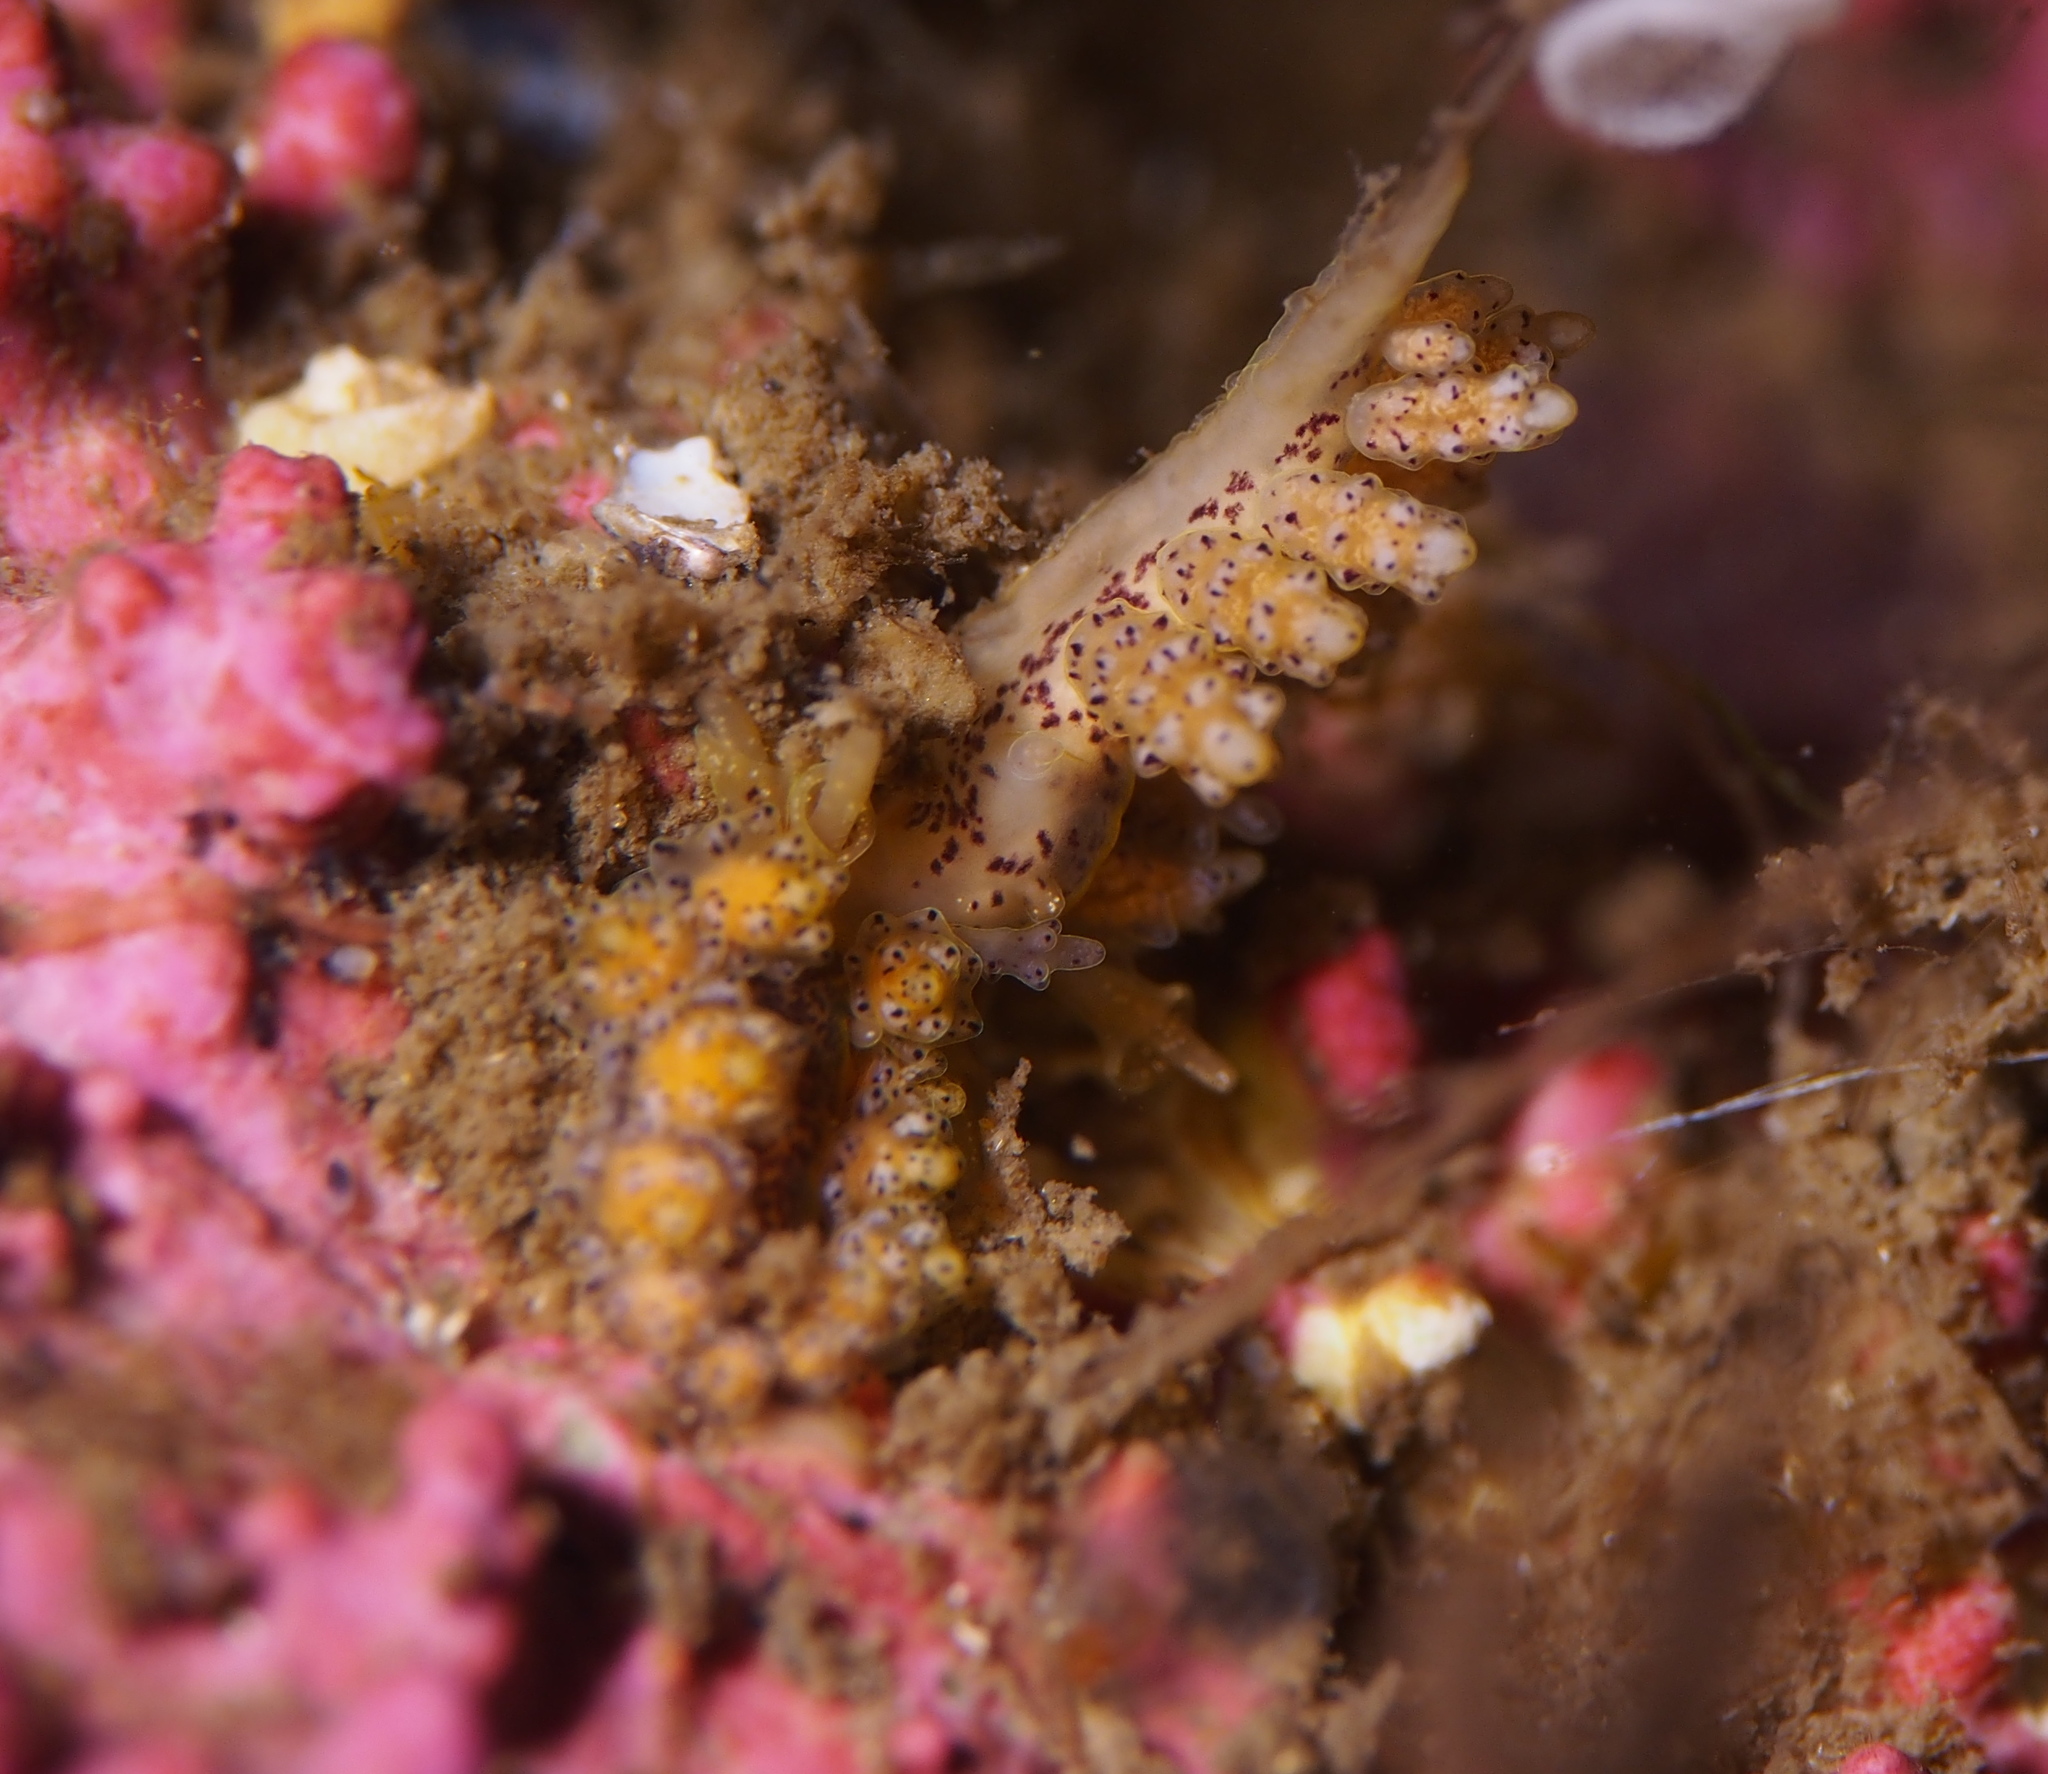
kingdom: Animalia
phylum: Mollusca
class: Gastropoda
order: Nudibranchia
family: Dotidae
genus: Doto
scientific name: Doto dunnei
